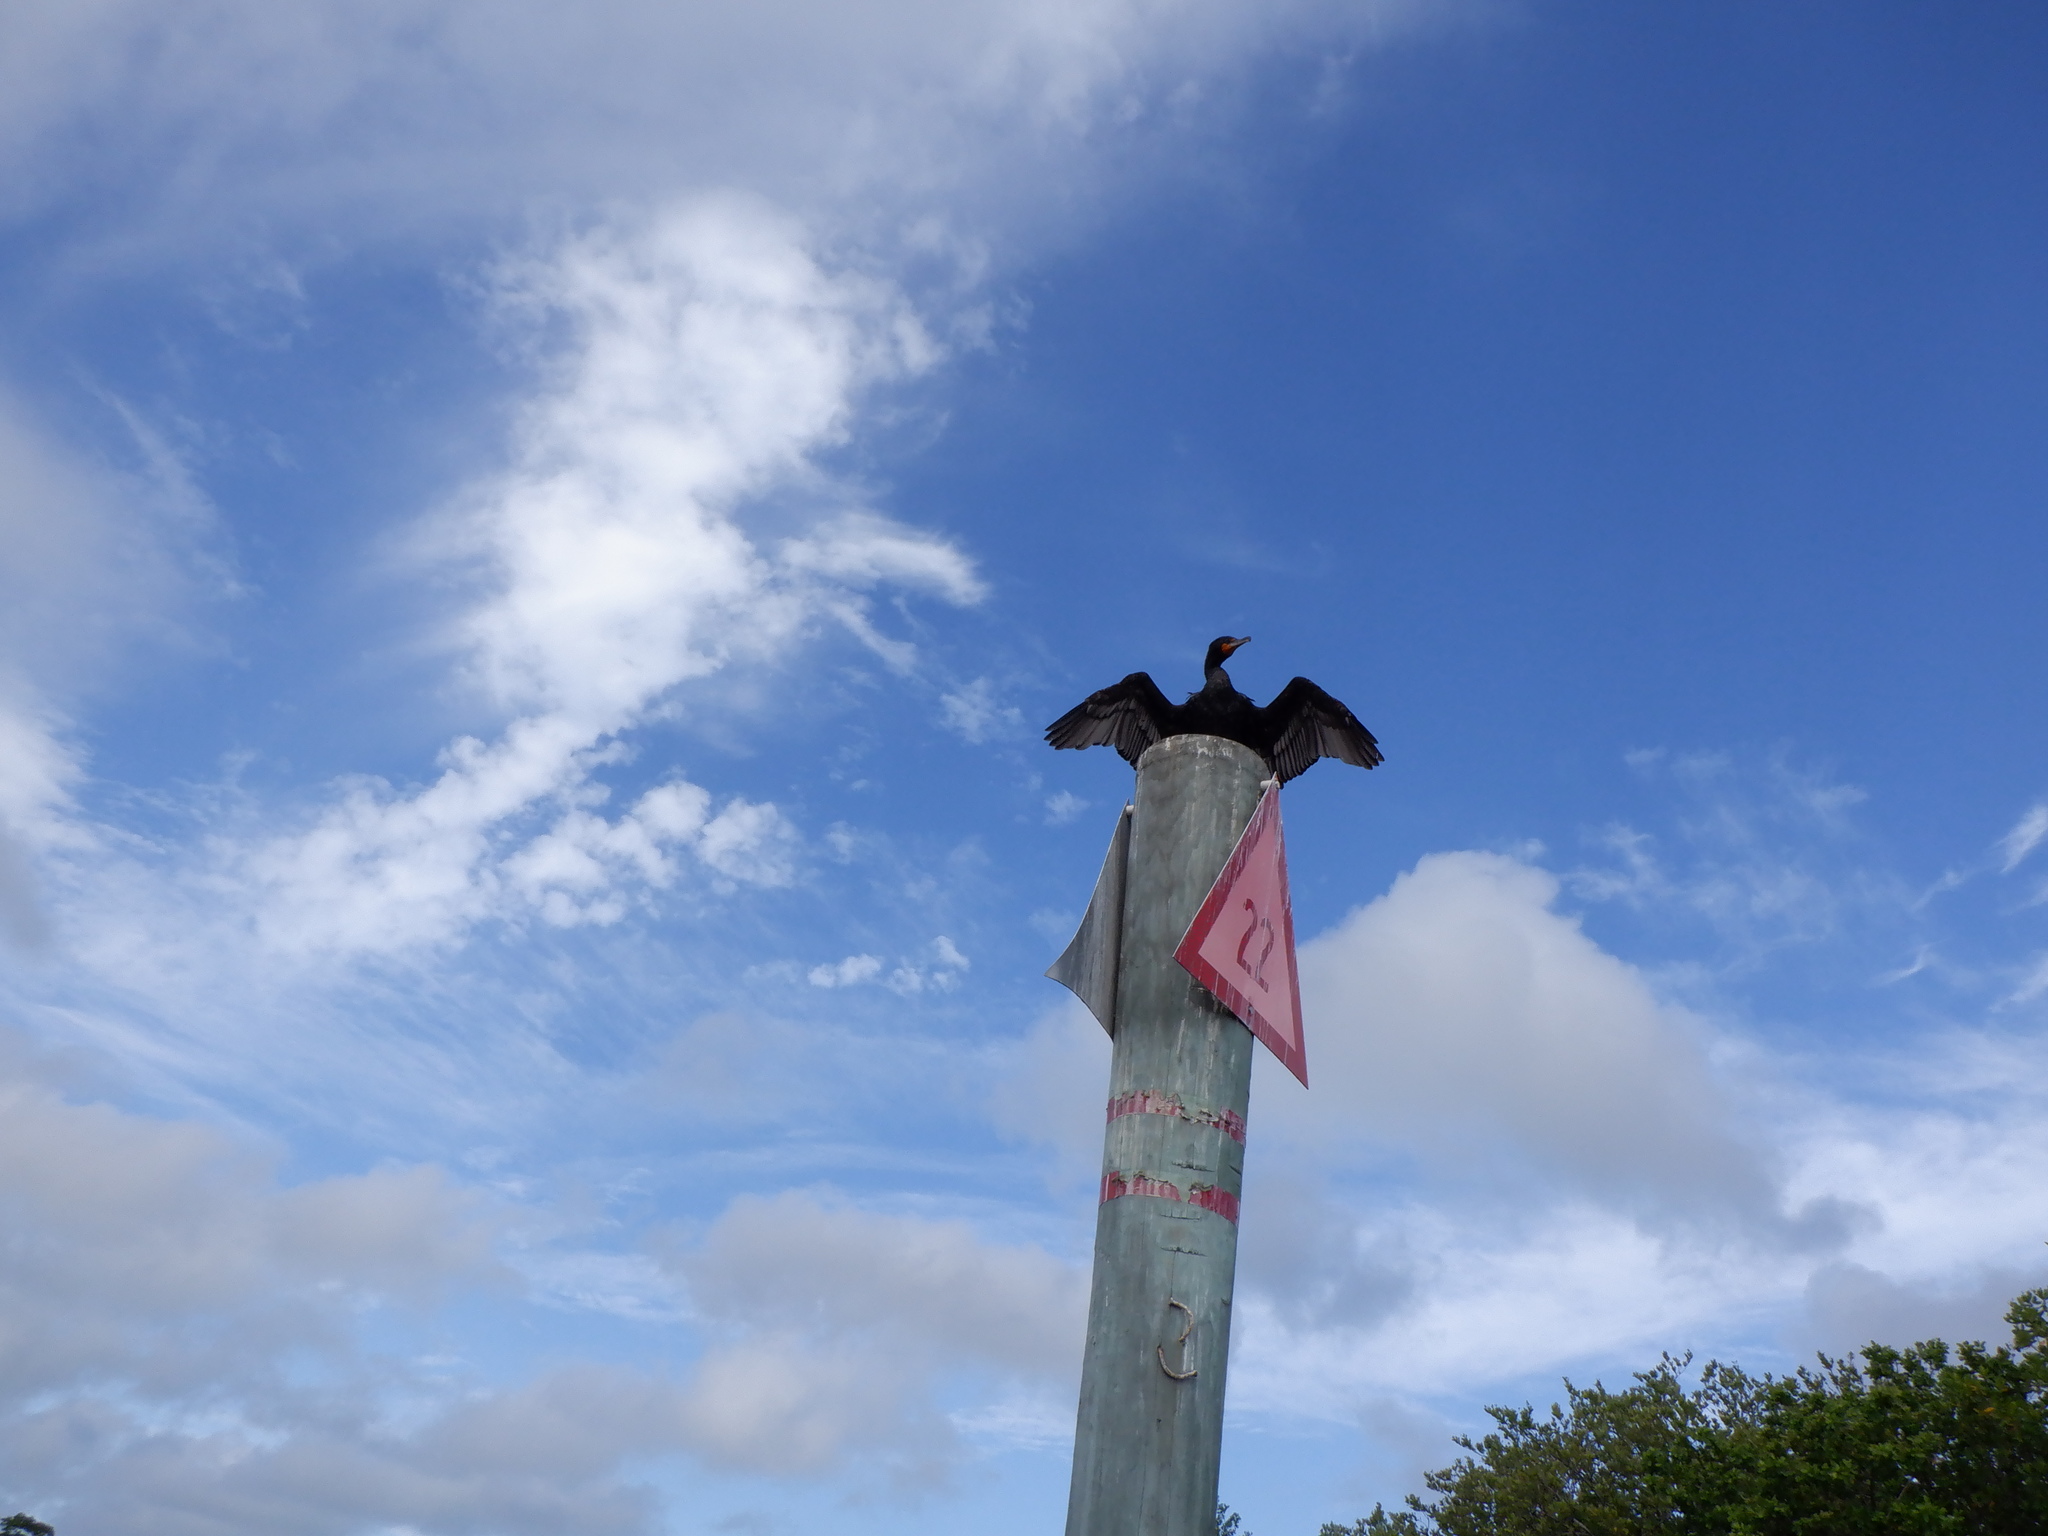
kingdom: Animalia
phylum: Chordata
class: Aves
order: Suliformes
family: Phalacrocoracidae
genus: Phalacrocorax
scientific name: Phalacrocorax auritus
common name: Double-crested cormorant
